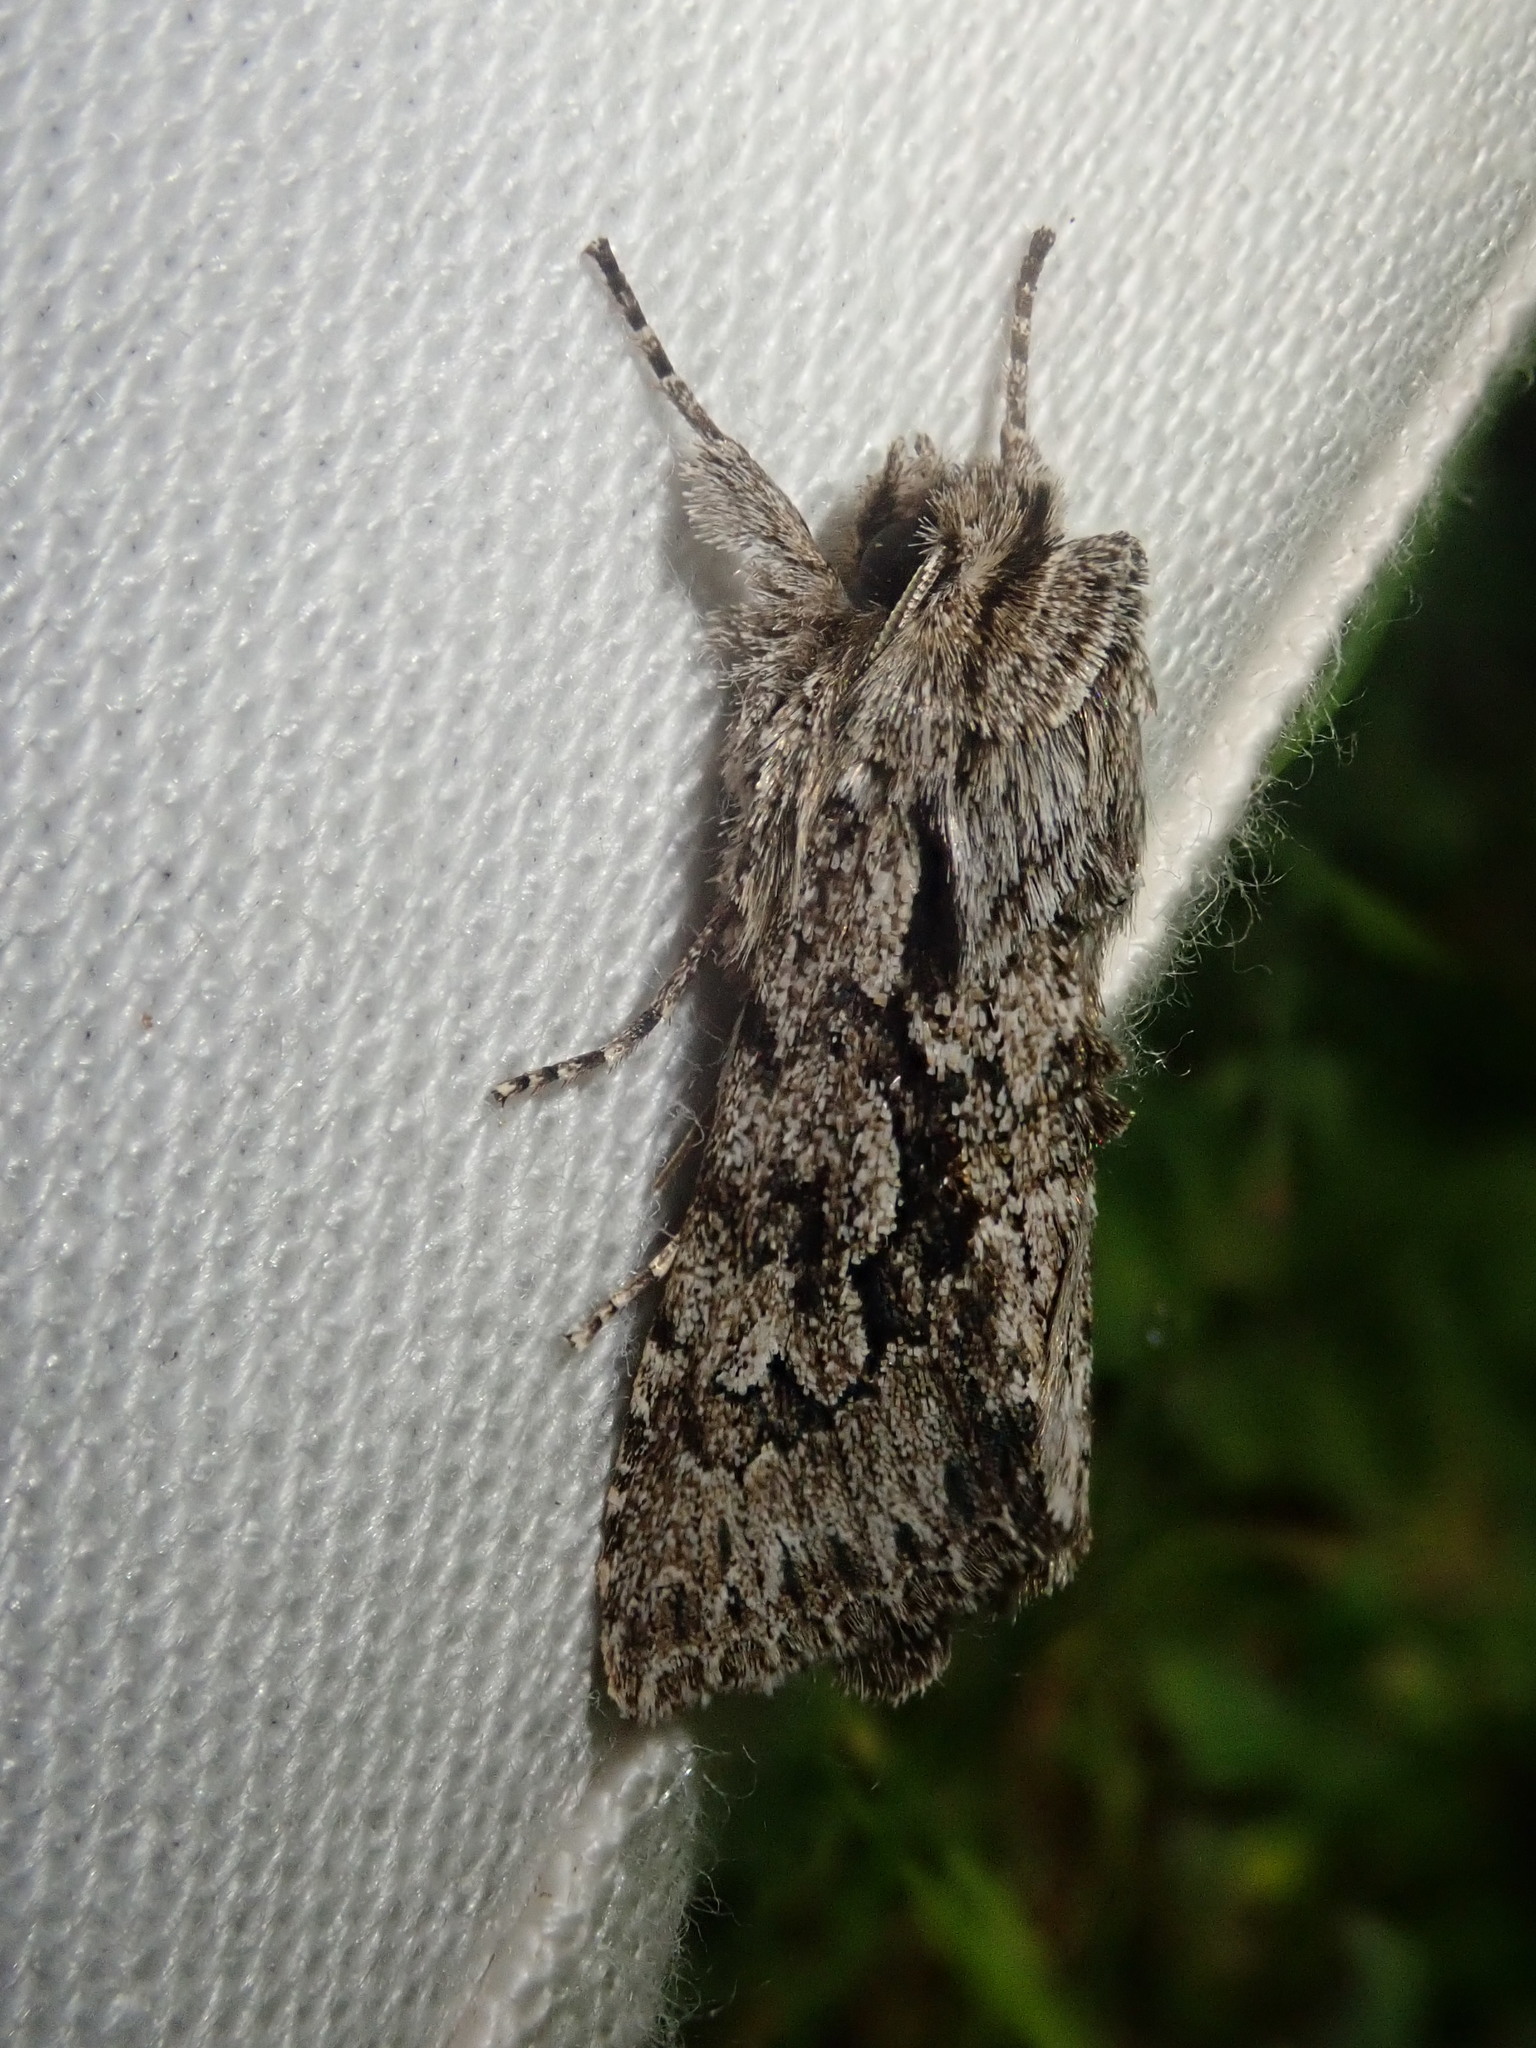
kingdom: Animalia
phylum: Arthropoda
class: Insecta
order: Lepidoptera
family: Noctuidae
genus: Xylocampa
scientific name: Xylocampa areola
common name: Early grey
